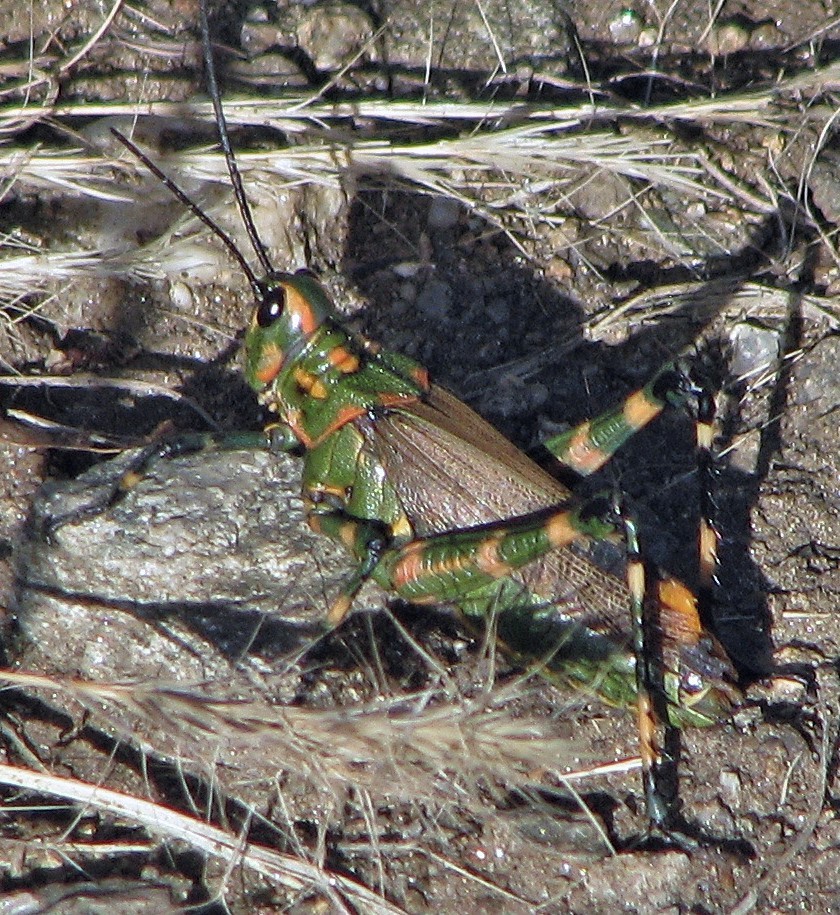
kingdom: Animalia
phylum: Arthropoda
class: Insecta
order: Orthoptera
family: Romaleidae
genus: Chromacris
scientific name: Chromacris speciosa
